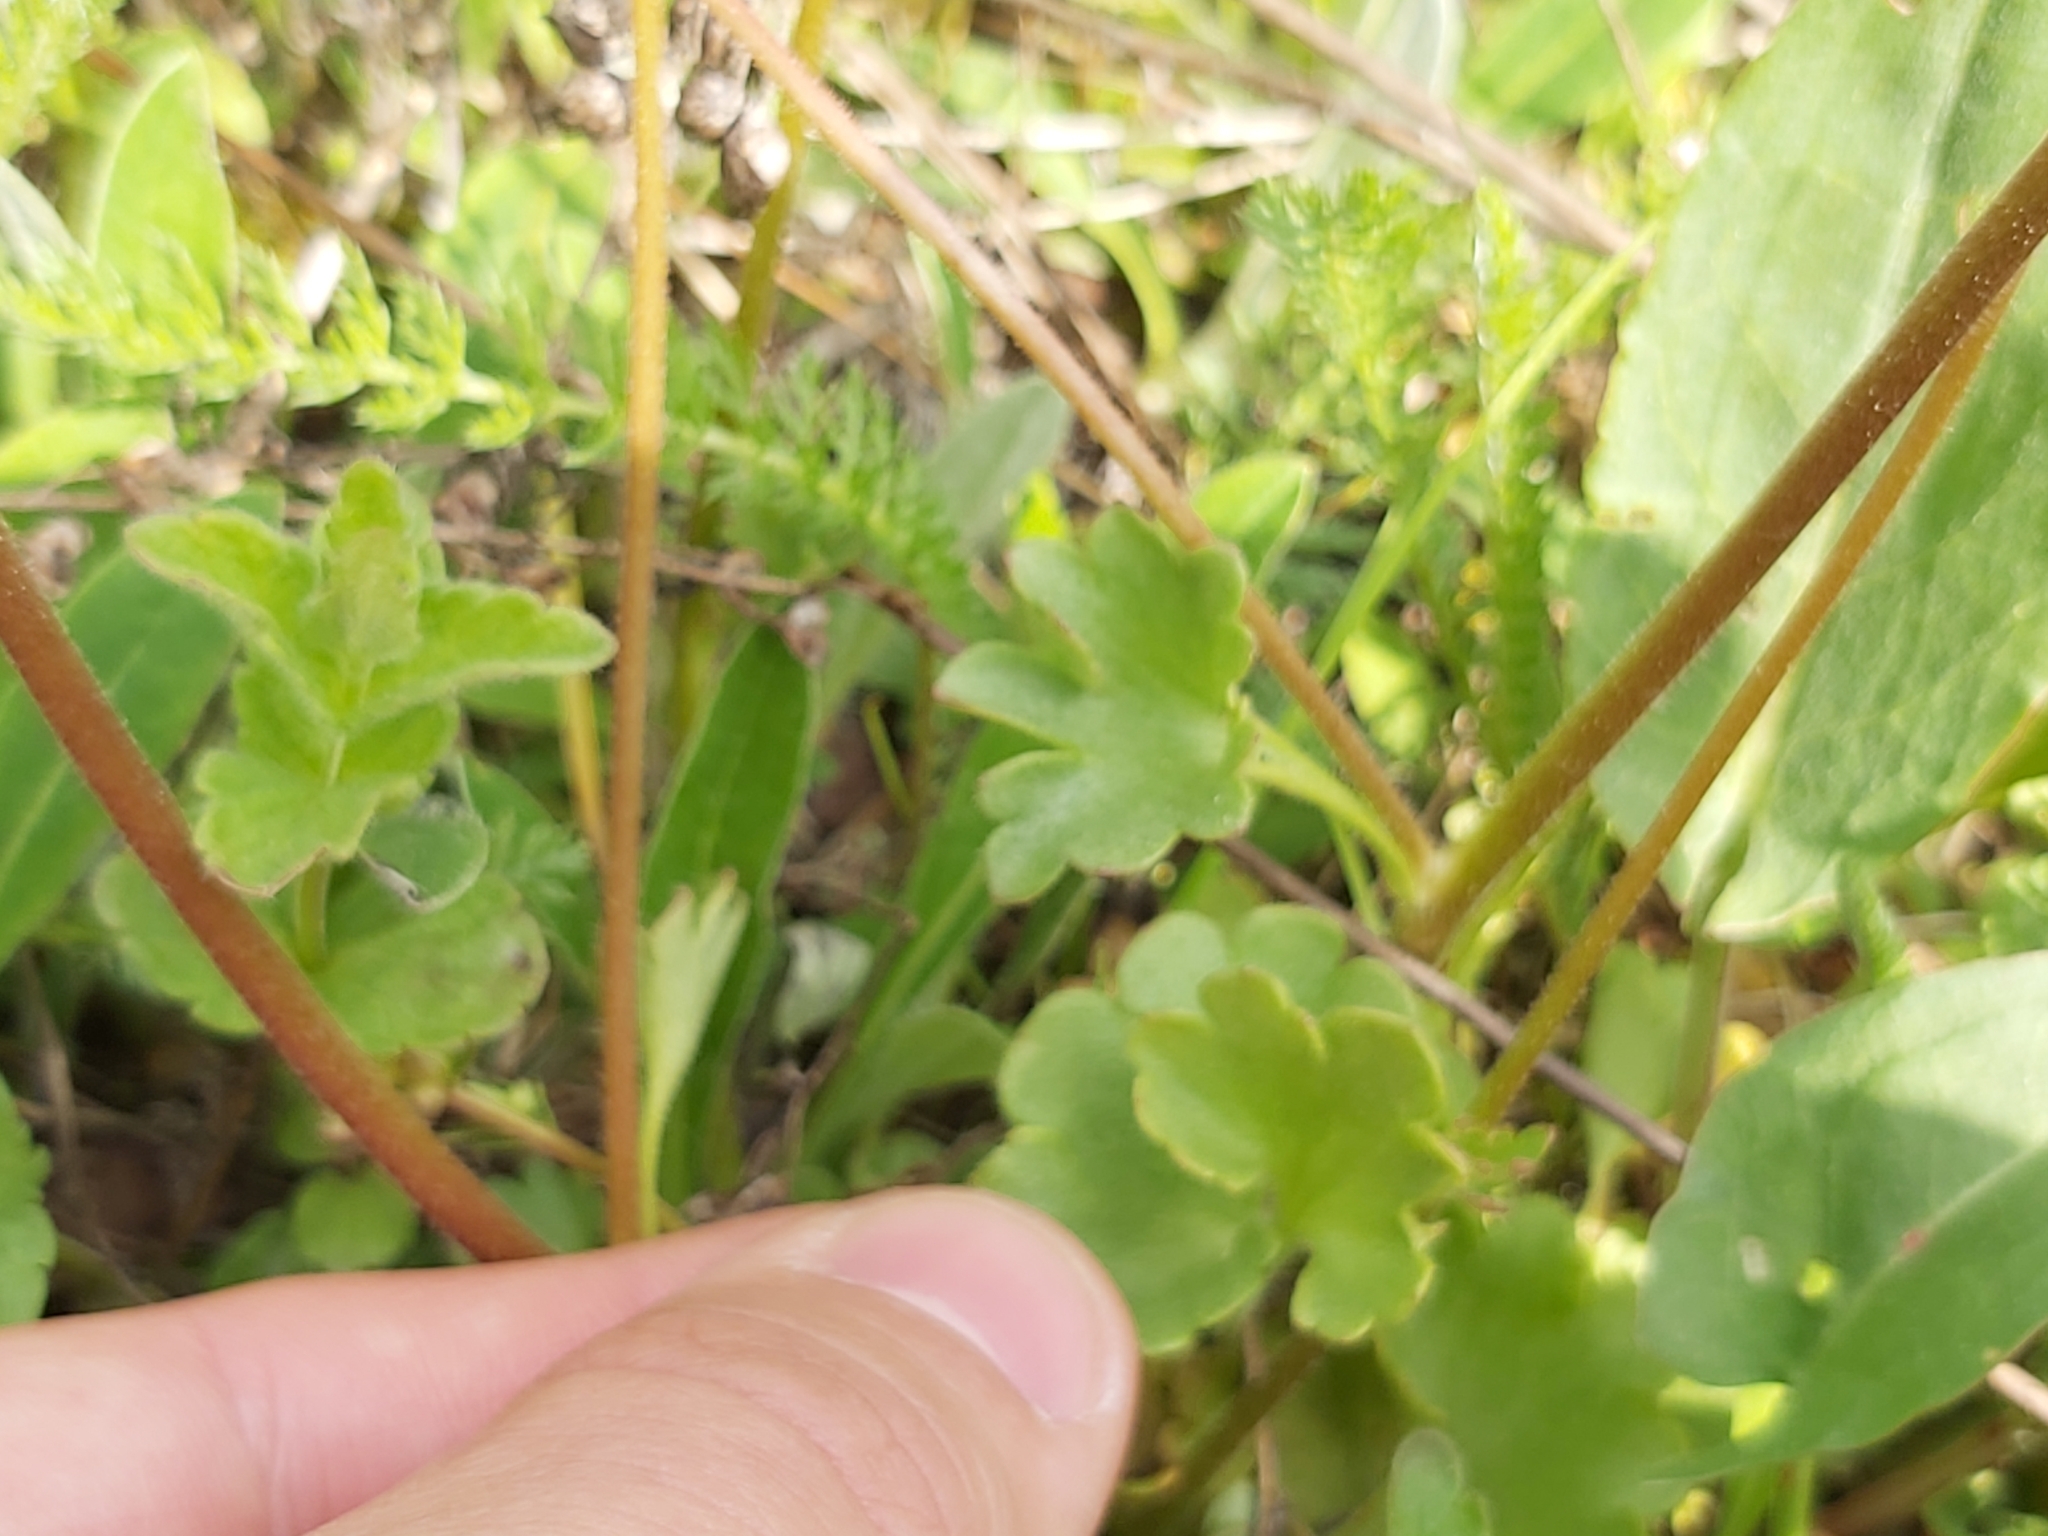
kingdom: Plantae
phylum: Tracheophyta
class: Magnoliopsida
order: Saxifragales
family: Saxifragaceae
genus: Saxifraga
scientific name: Saxifraga granulata
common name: Meadow saxifrage
